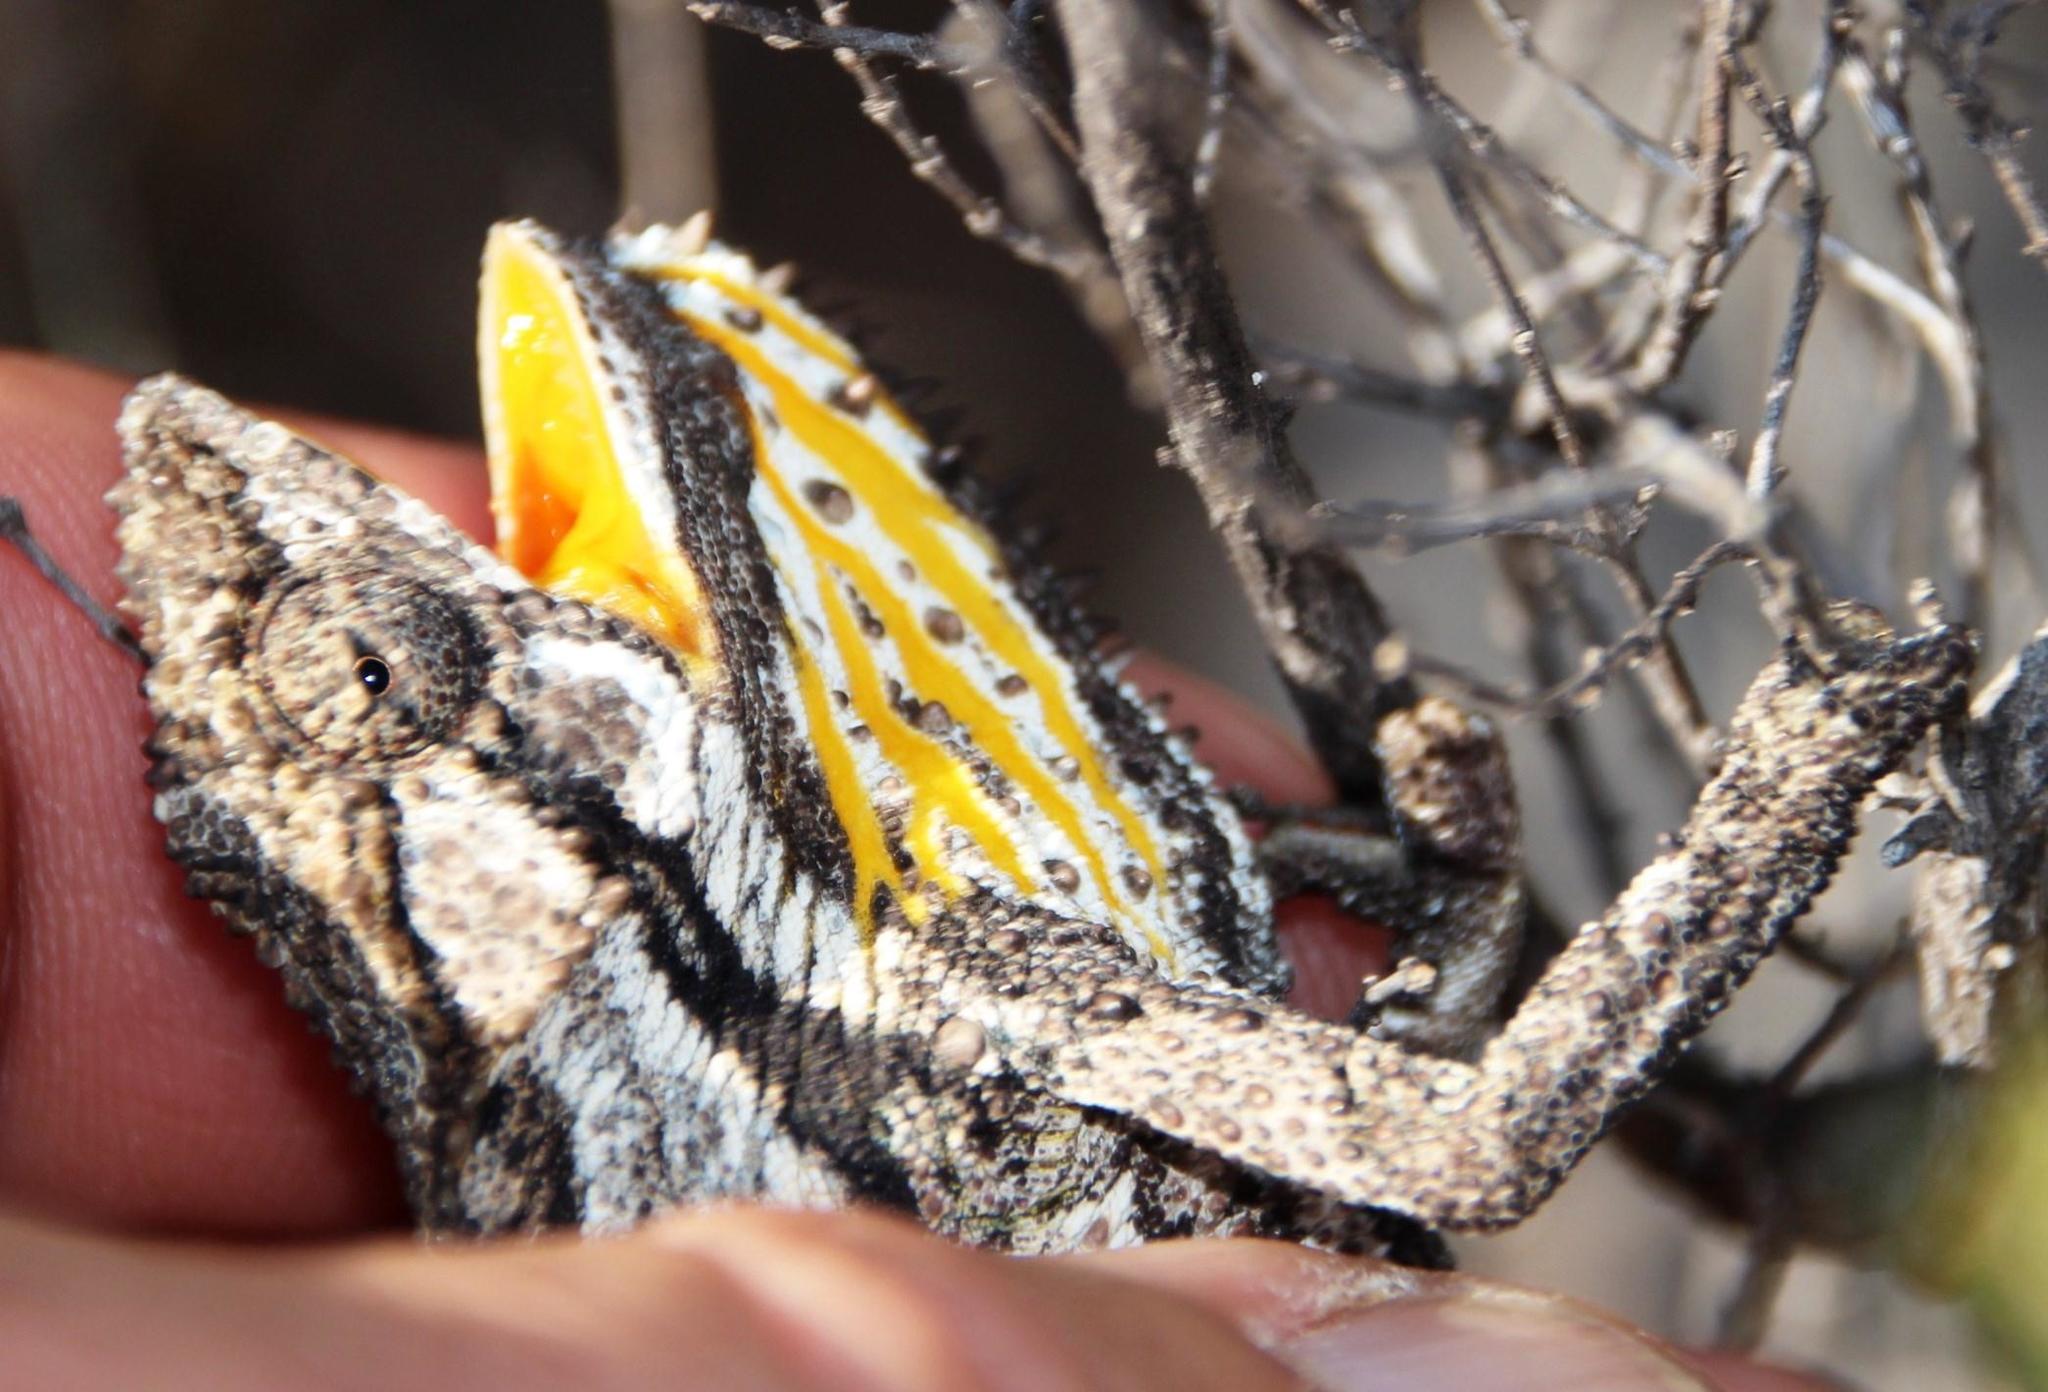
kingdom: Animalia
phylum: Chordata
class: Squamata
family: Chamaeleonidae
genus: Bradypodion
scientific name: Bradypodion gutturale
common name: Little karoo dwarf chameleon
